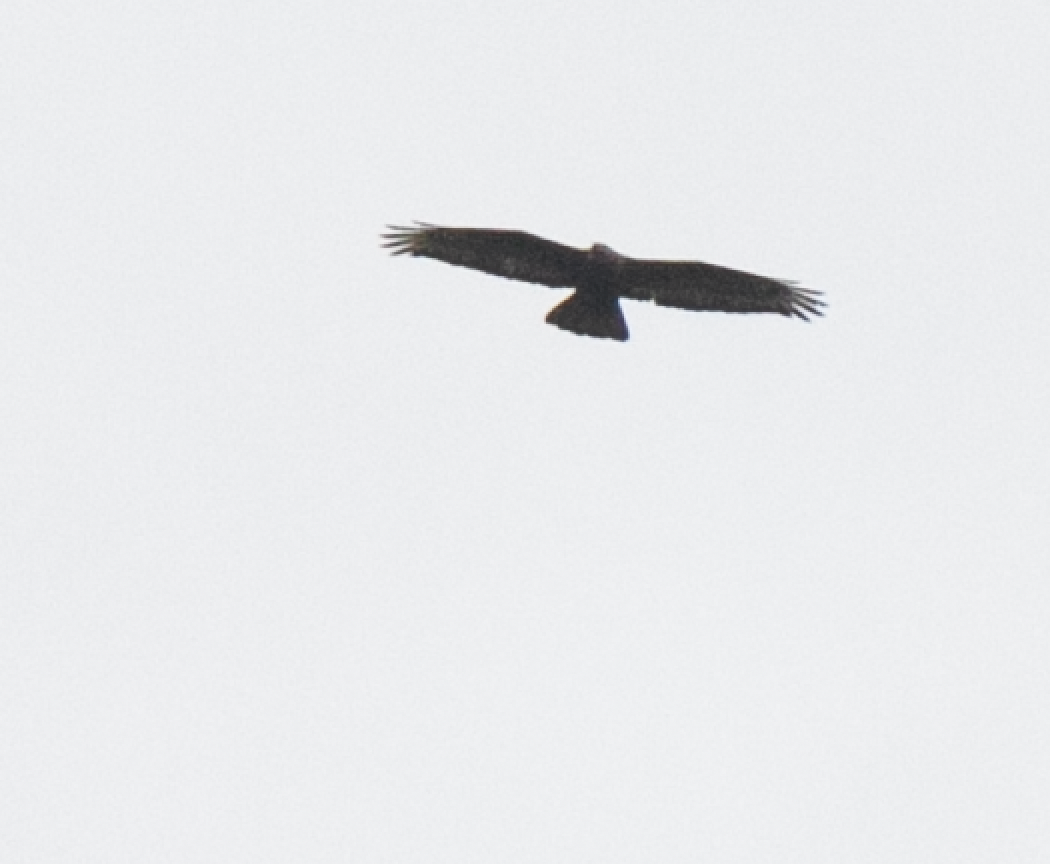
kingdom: Animalia
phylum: Chordata
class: Aves
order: Accipitriformes
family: Accipitridae
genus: Milvus
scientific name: Milvus migrans
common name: Black kite
